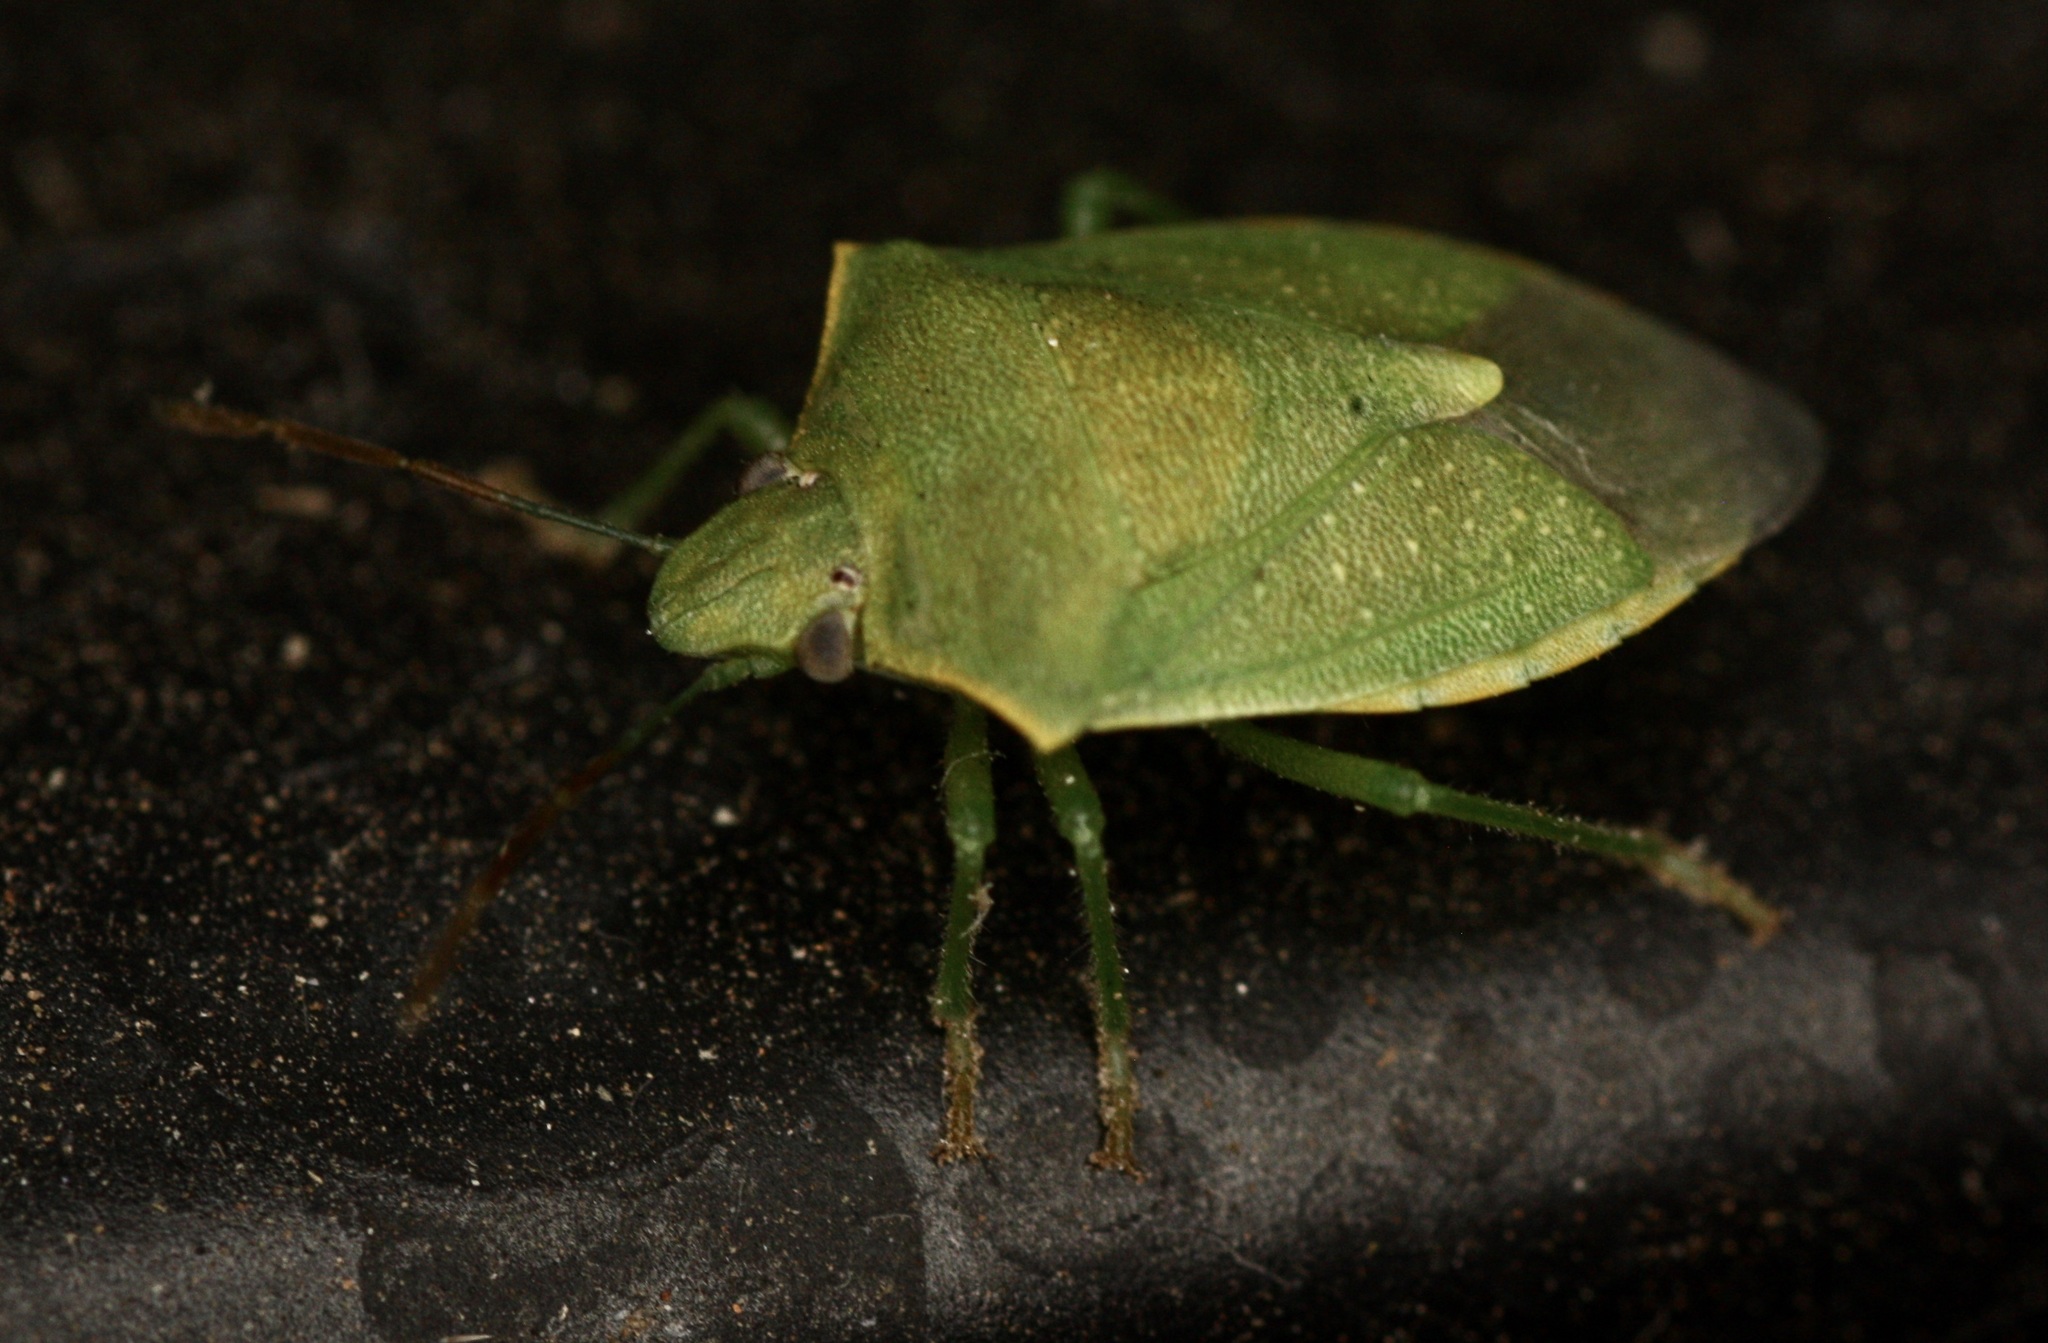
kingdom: Animalia
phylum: Arthropoda
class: Insecta
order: Hemiptera
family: Pentatomidae
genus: Thyanta
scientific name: Thyanta accerra
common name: Stink bug
